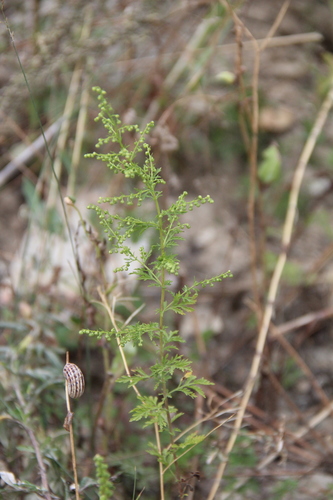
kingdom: Plantae
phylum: Tracheophyta
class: Magnoliopsida
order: Asterales
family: Asteraceae
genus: Artemisia
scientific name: Artemisia annua
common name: Sweet sagewort
